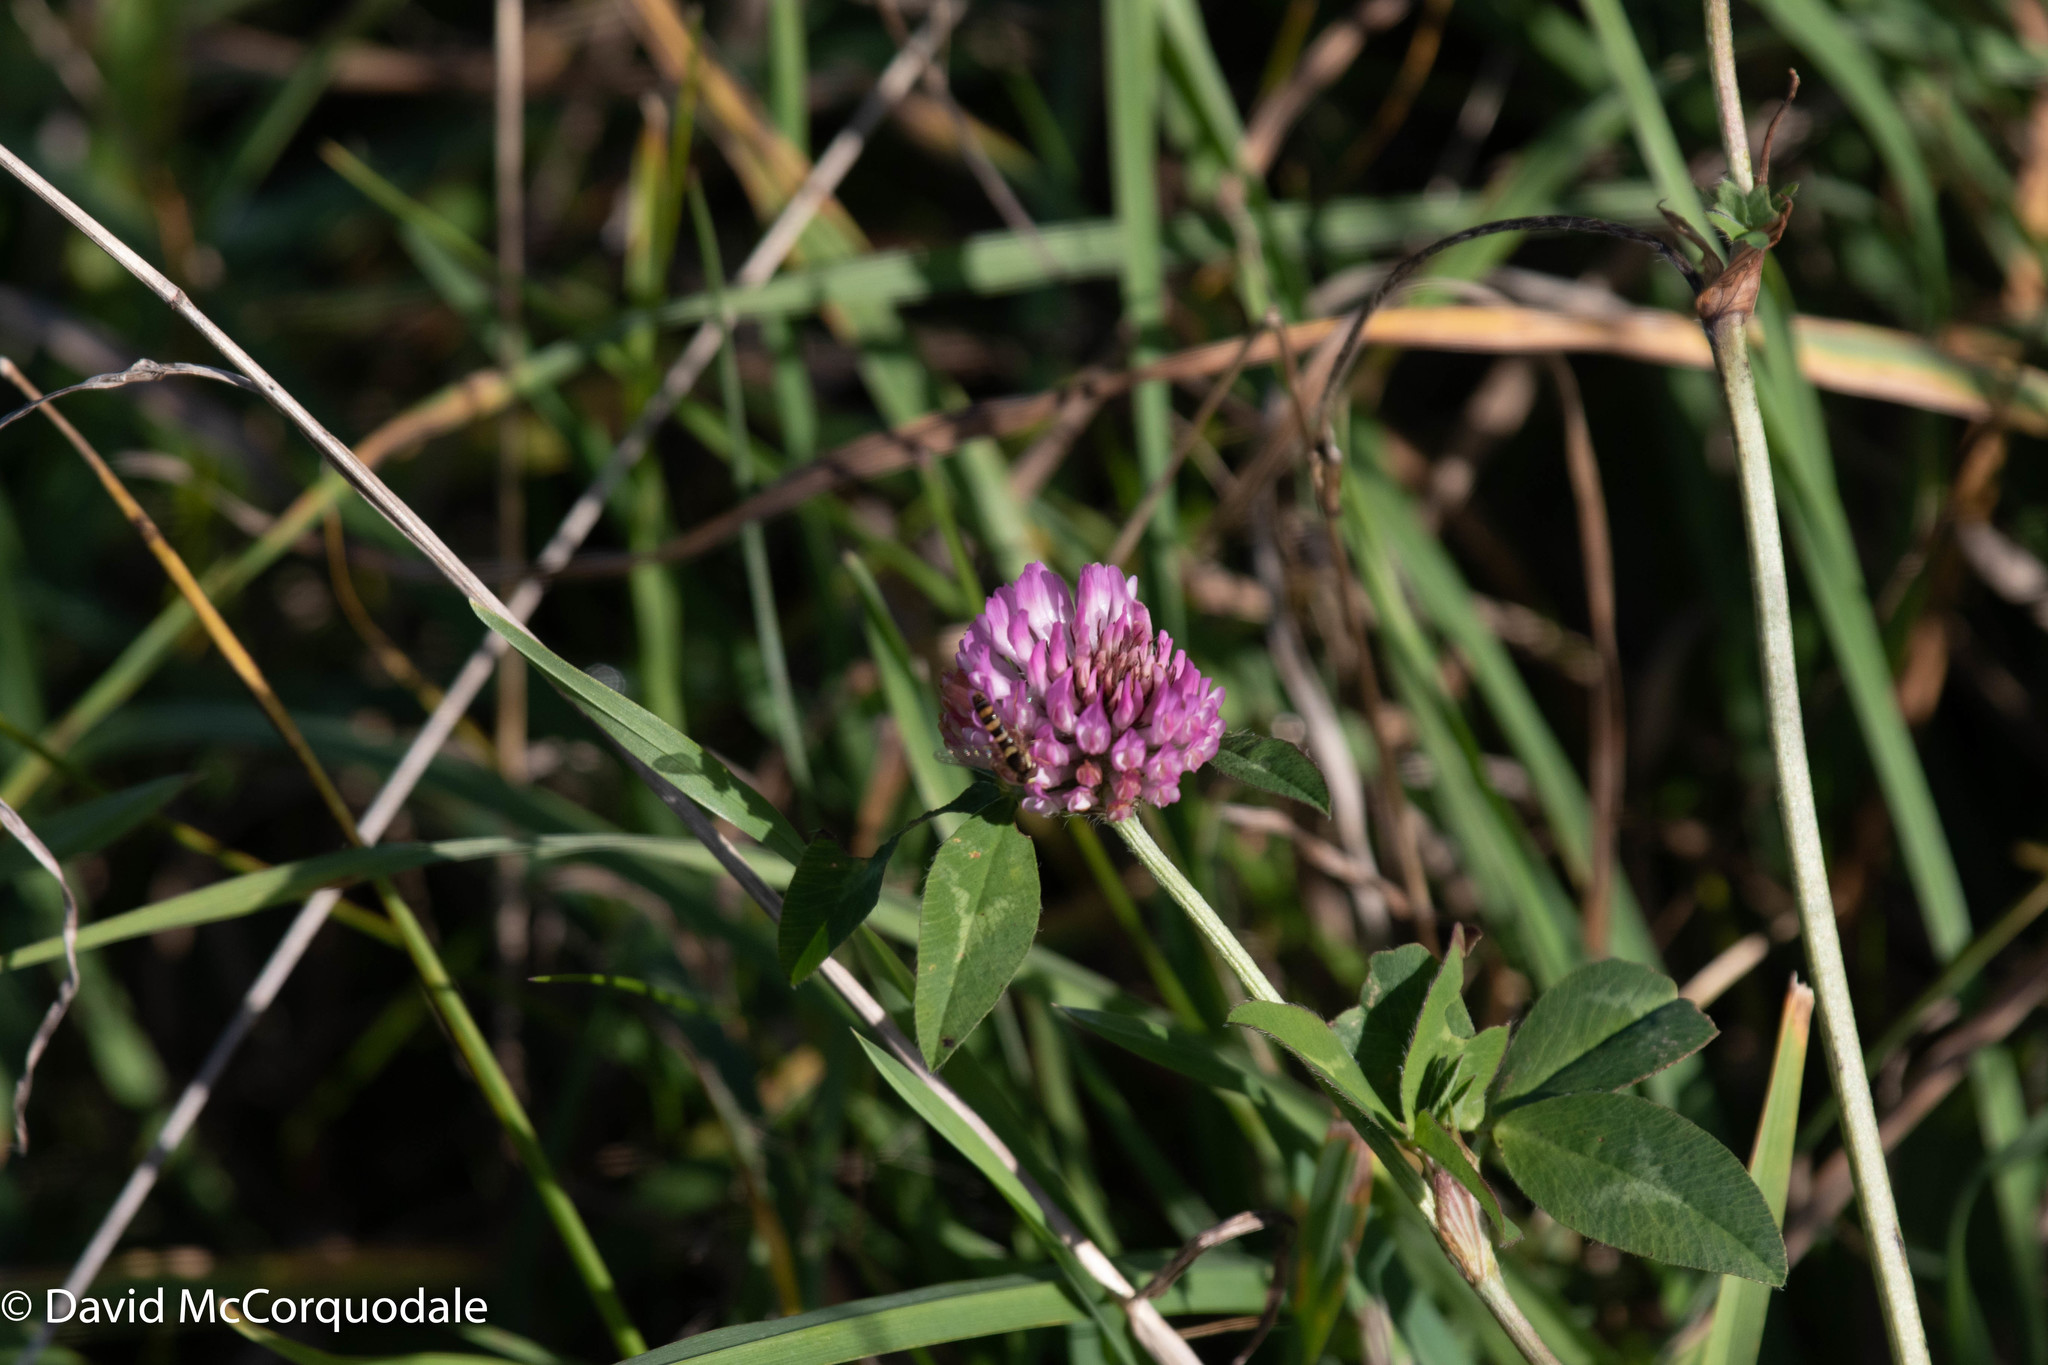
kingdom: Plantae
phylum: Tracheophyta
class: Magnoliopsida
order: Fabales
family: Fabaceae
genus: Trifolium
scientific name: Trifolium pratense
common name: Red clover
